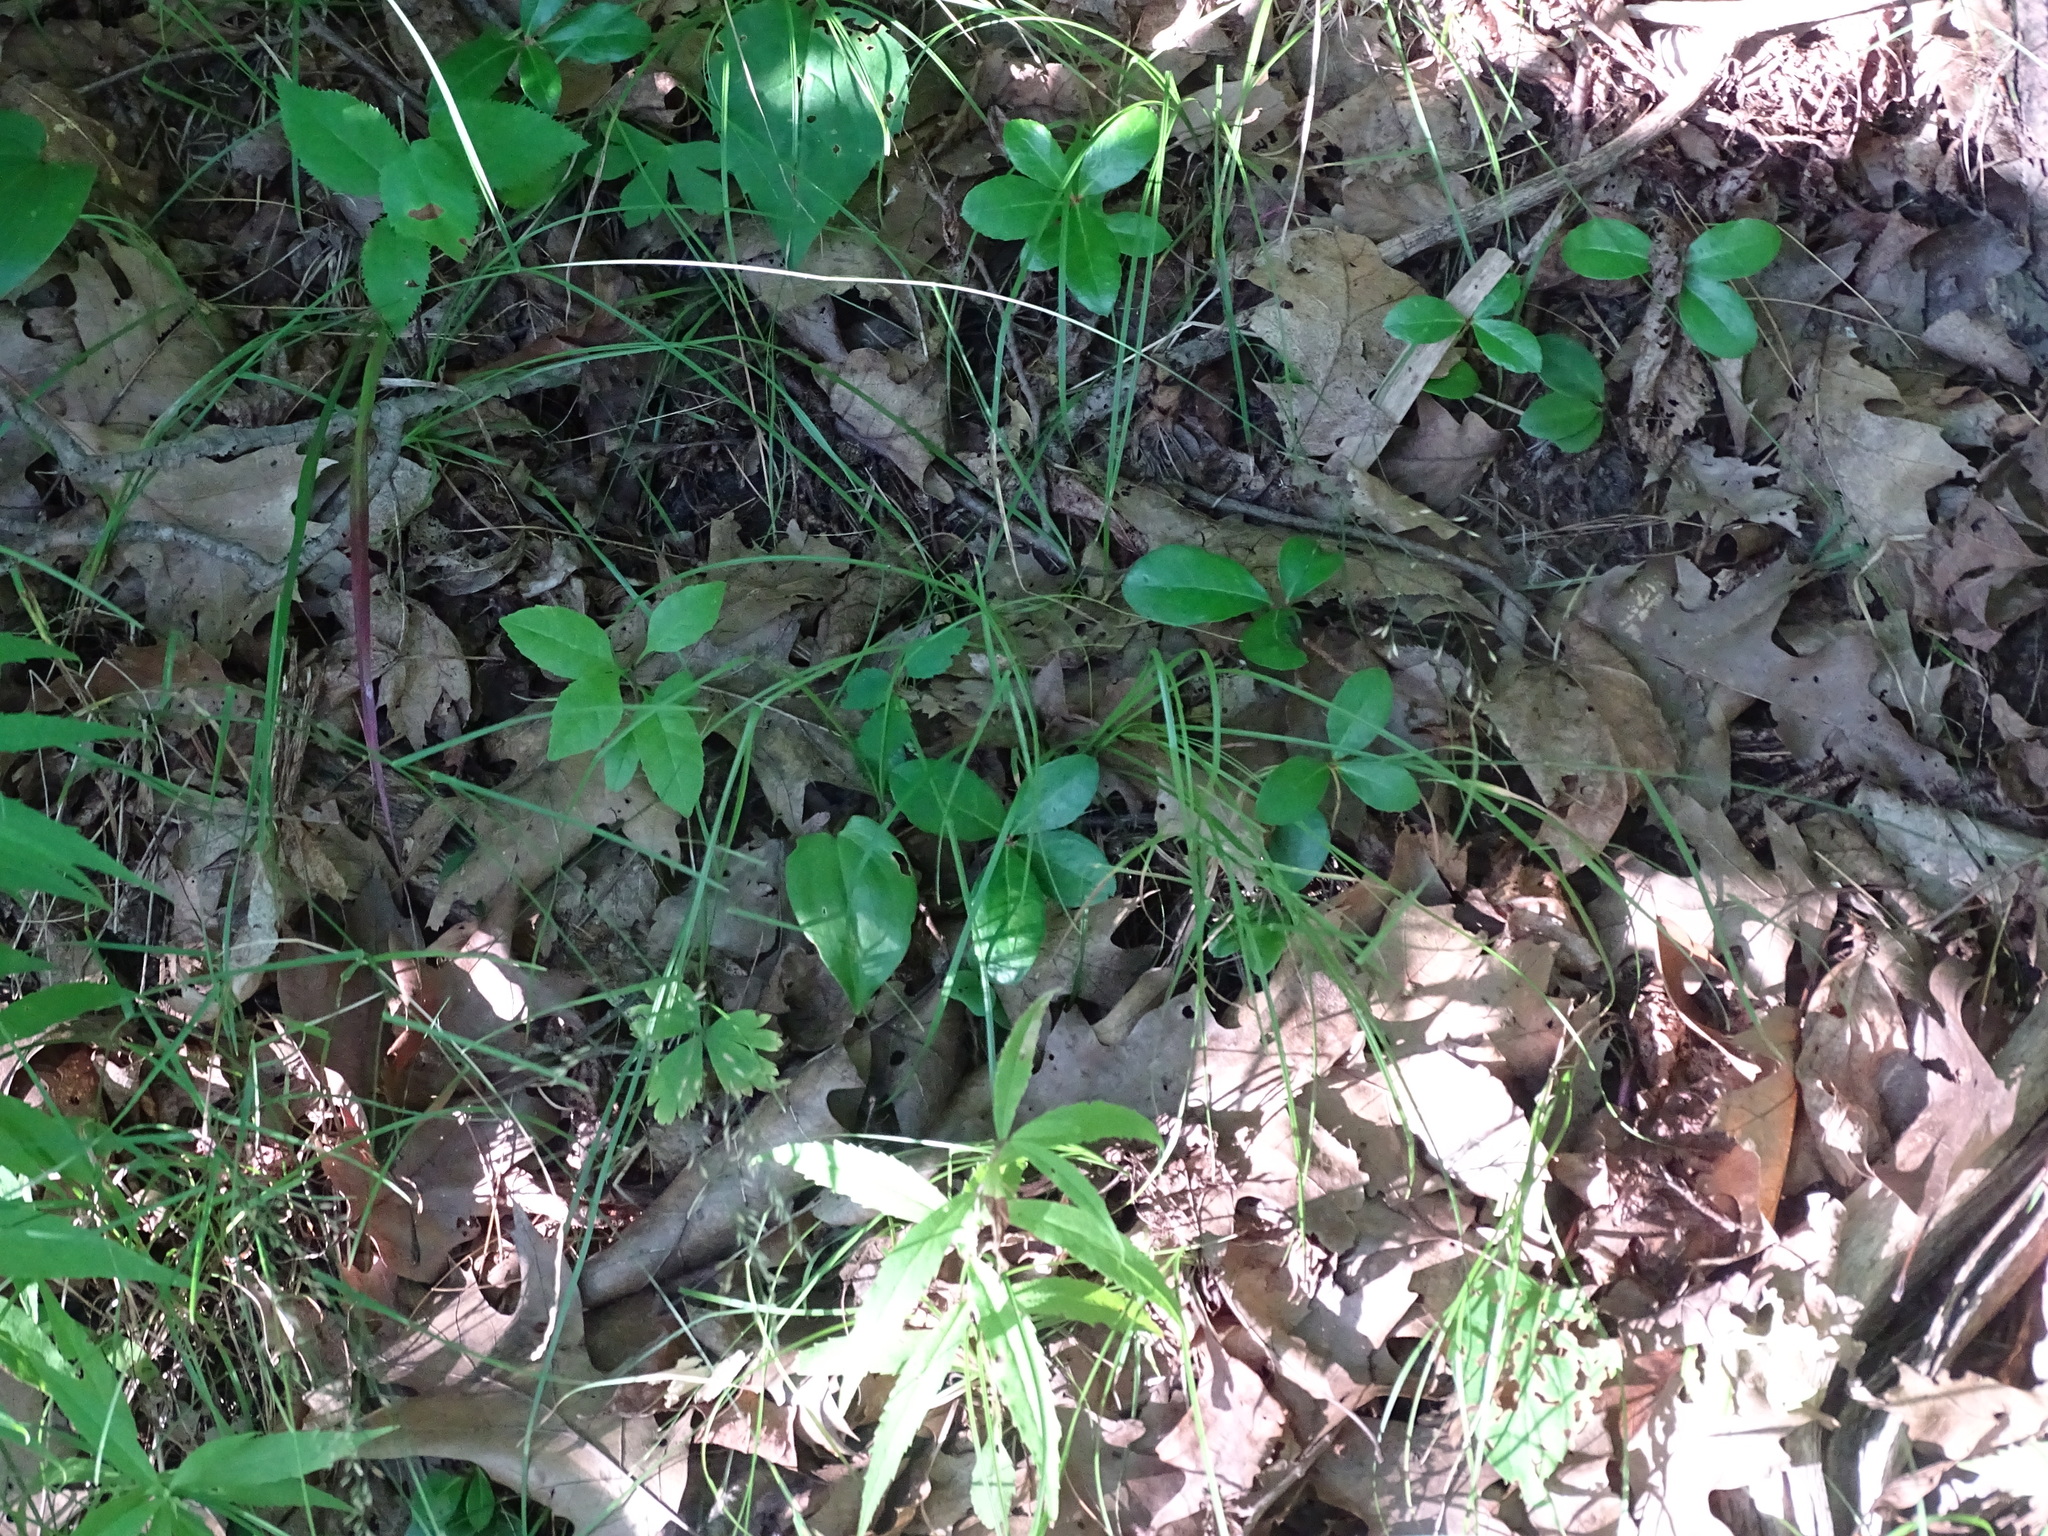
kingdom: Plantae
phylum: Tracheophyta
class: Magnoliopsida
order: Ericales
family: Ericaceae
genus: Gaultheria
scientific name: Gaultheria procumbens
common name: Checkerberry
